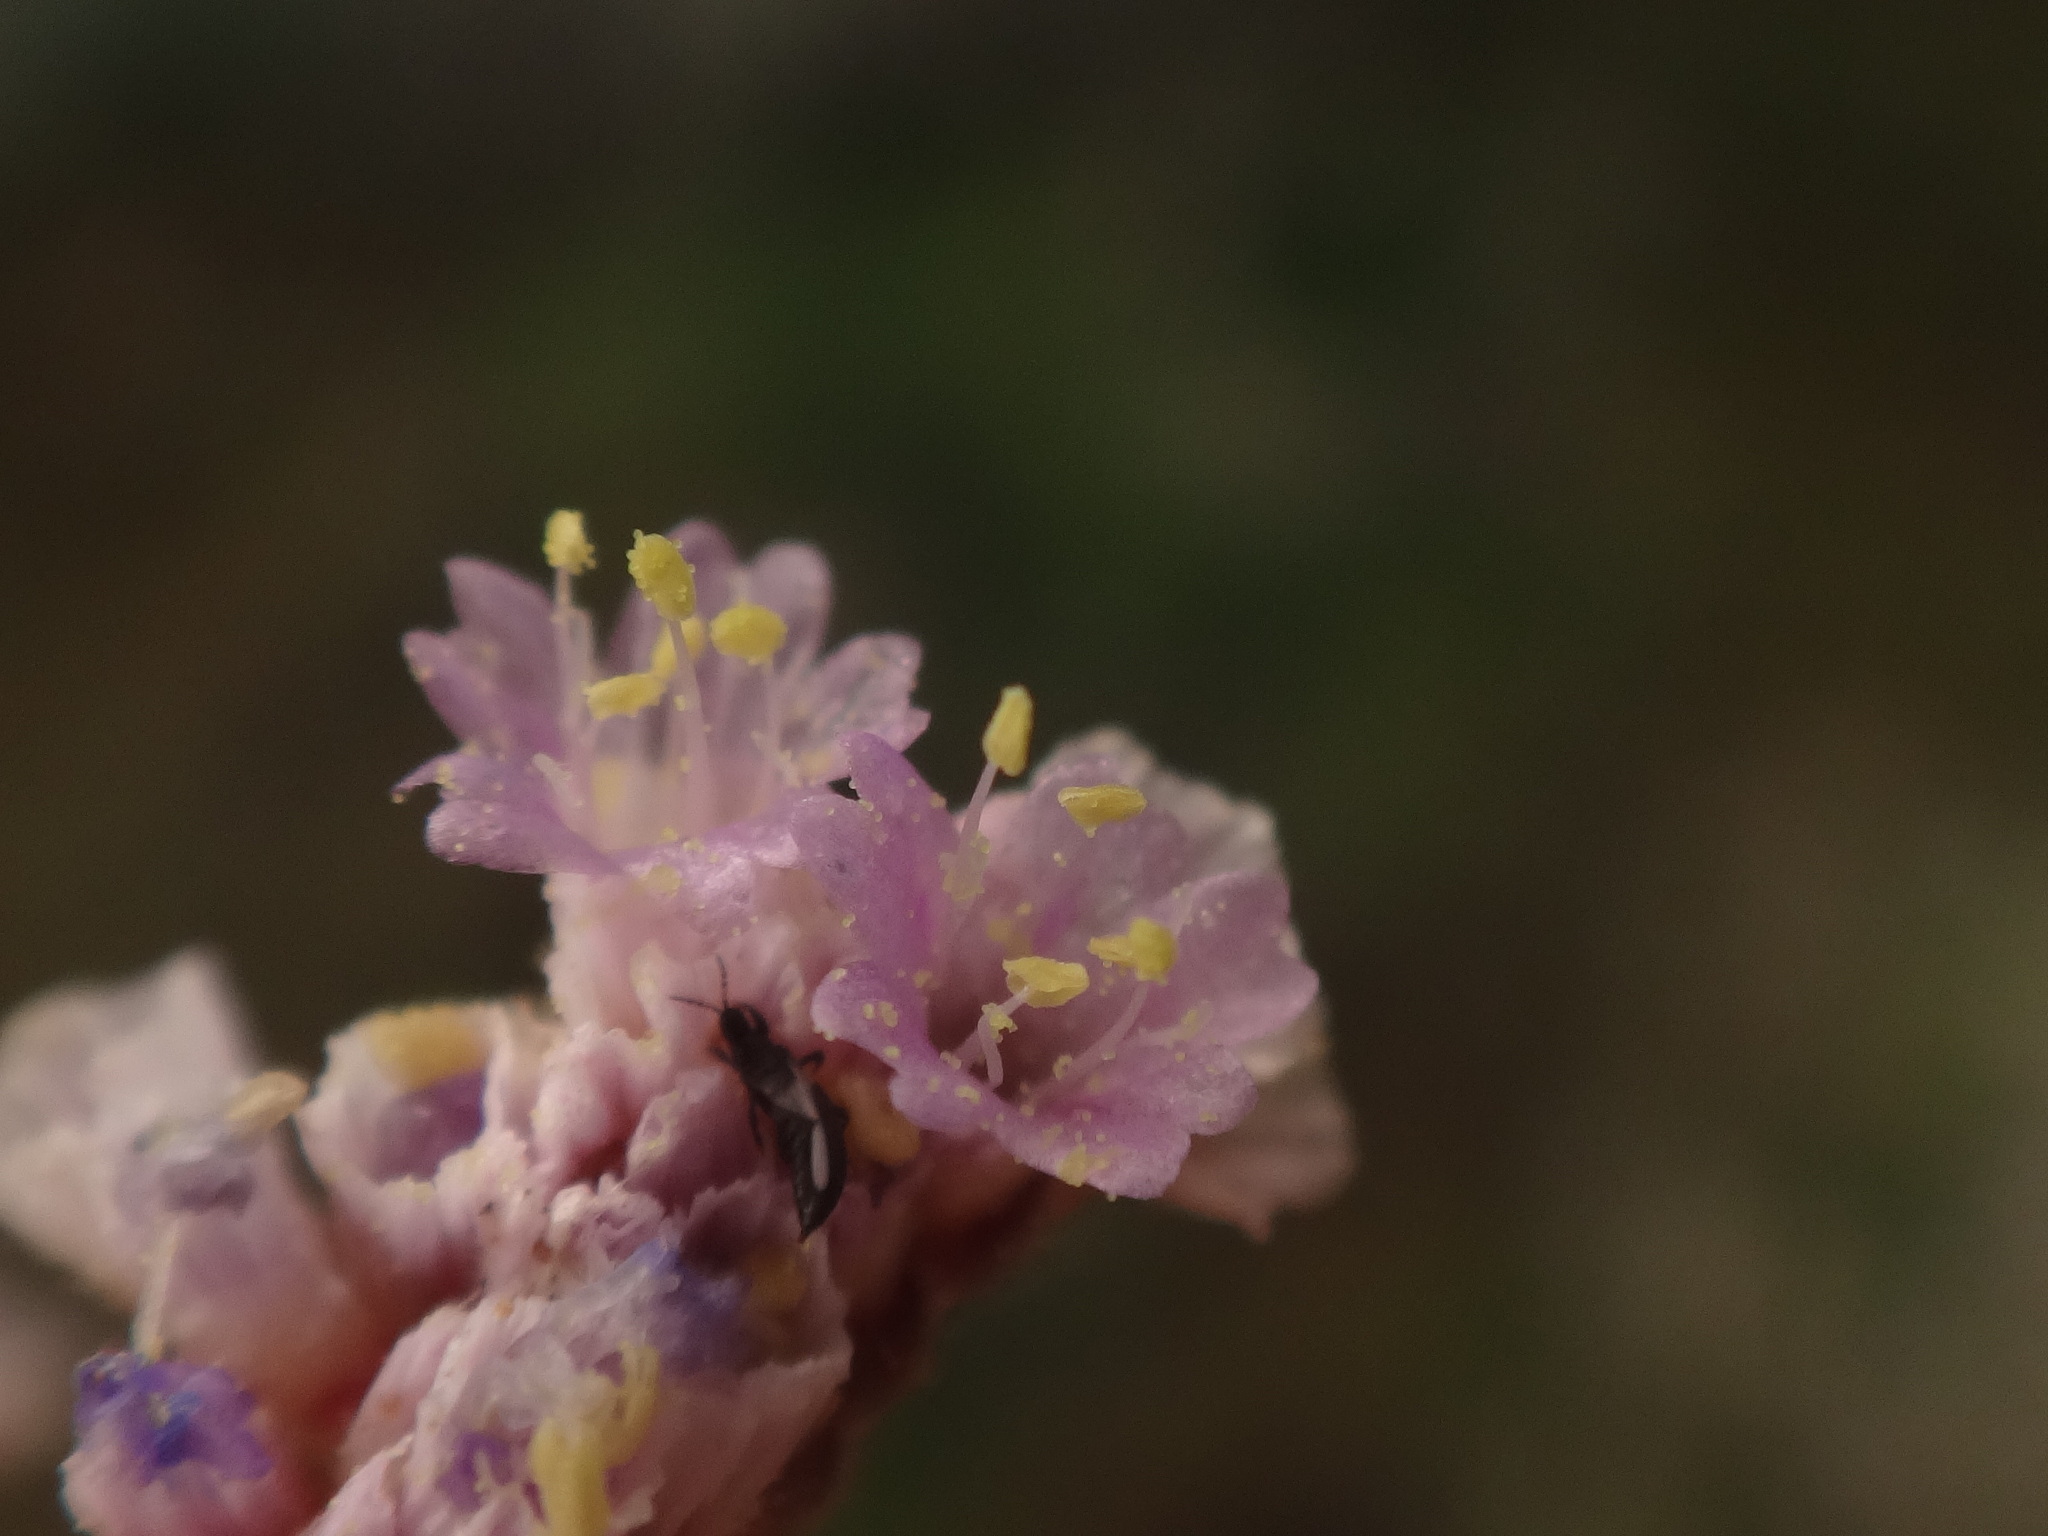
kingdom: Plantae
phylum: Tracheophyta
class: Magnoliopsida
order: Caryophyllales
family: Plumbaginaceae
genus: Limonium
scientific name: Limonium pectinatum
